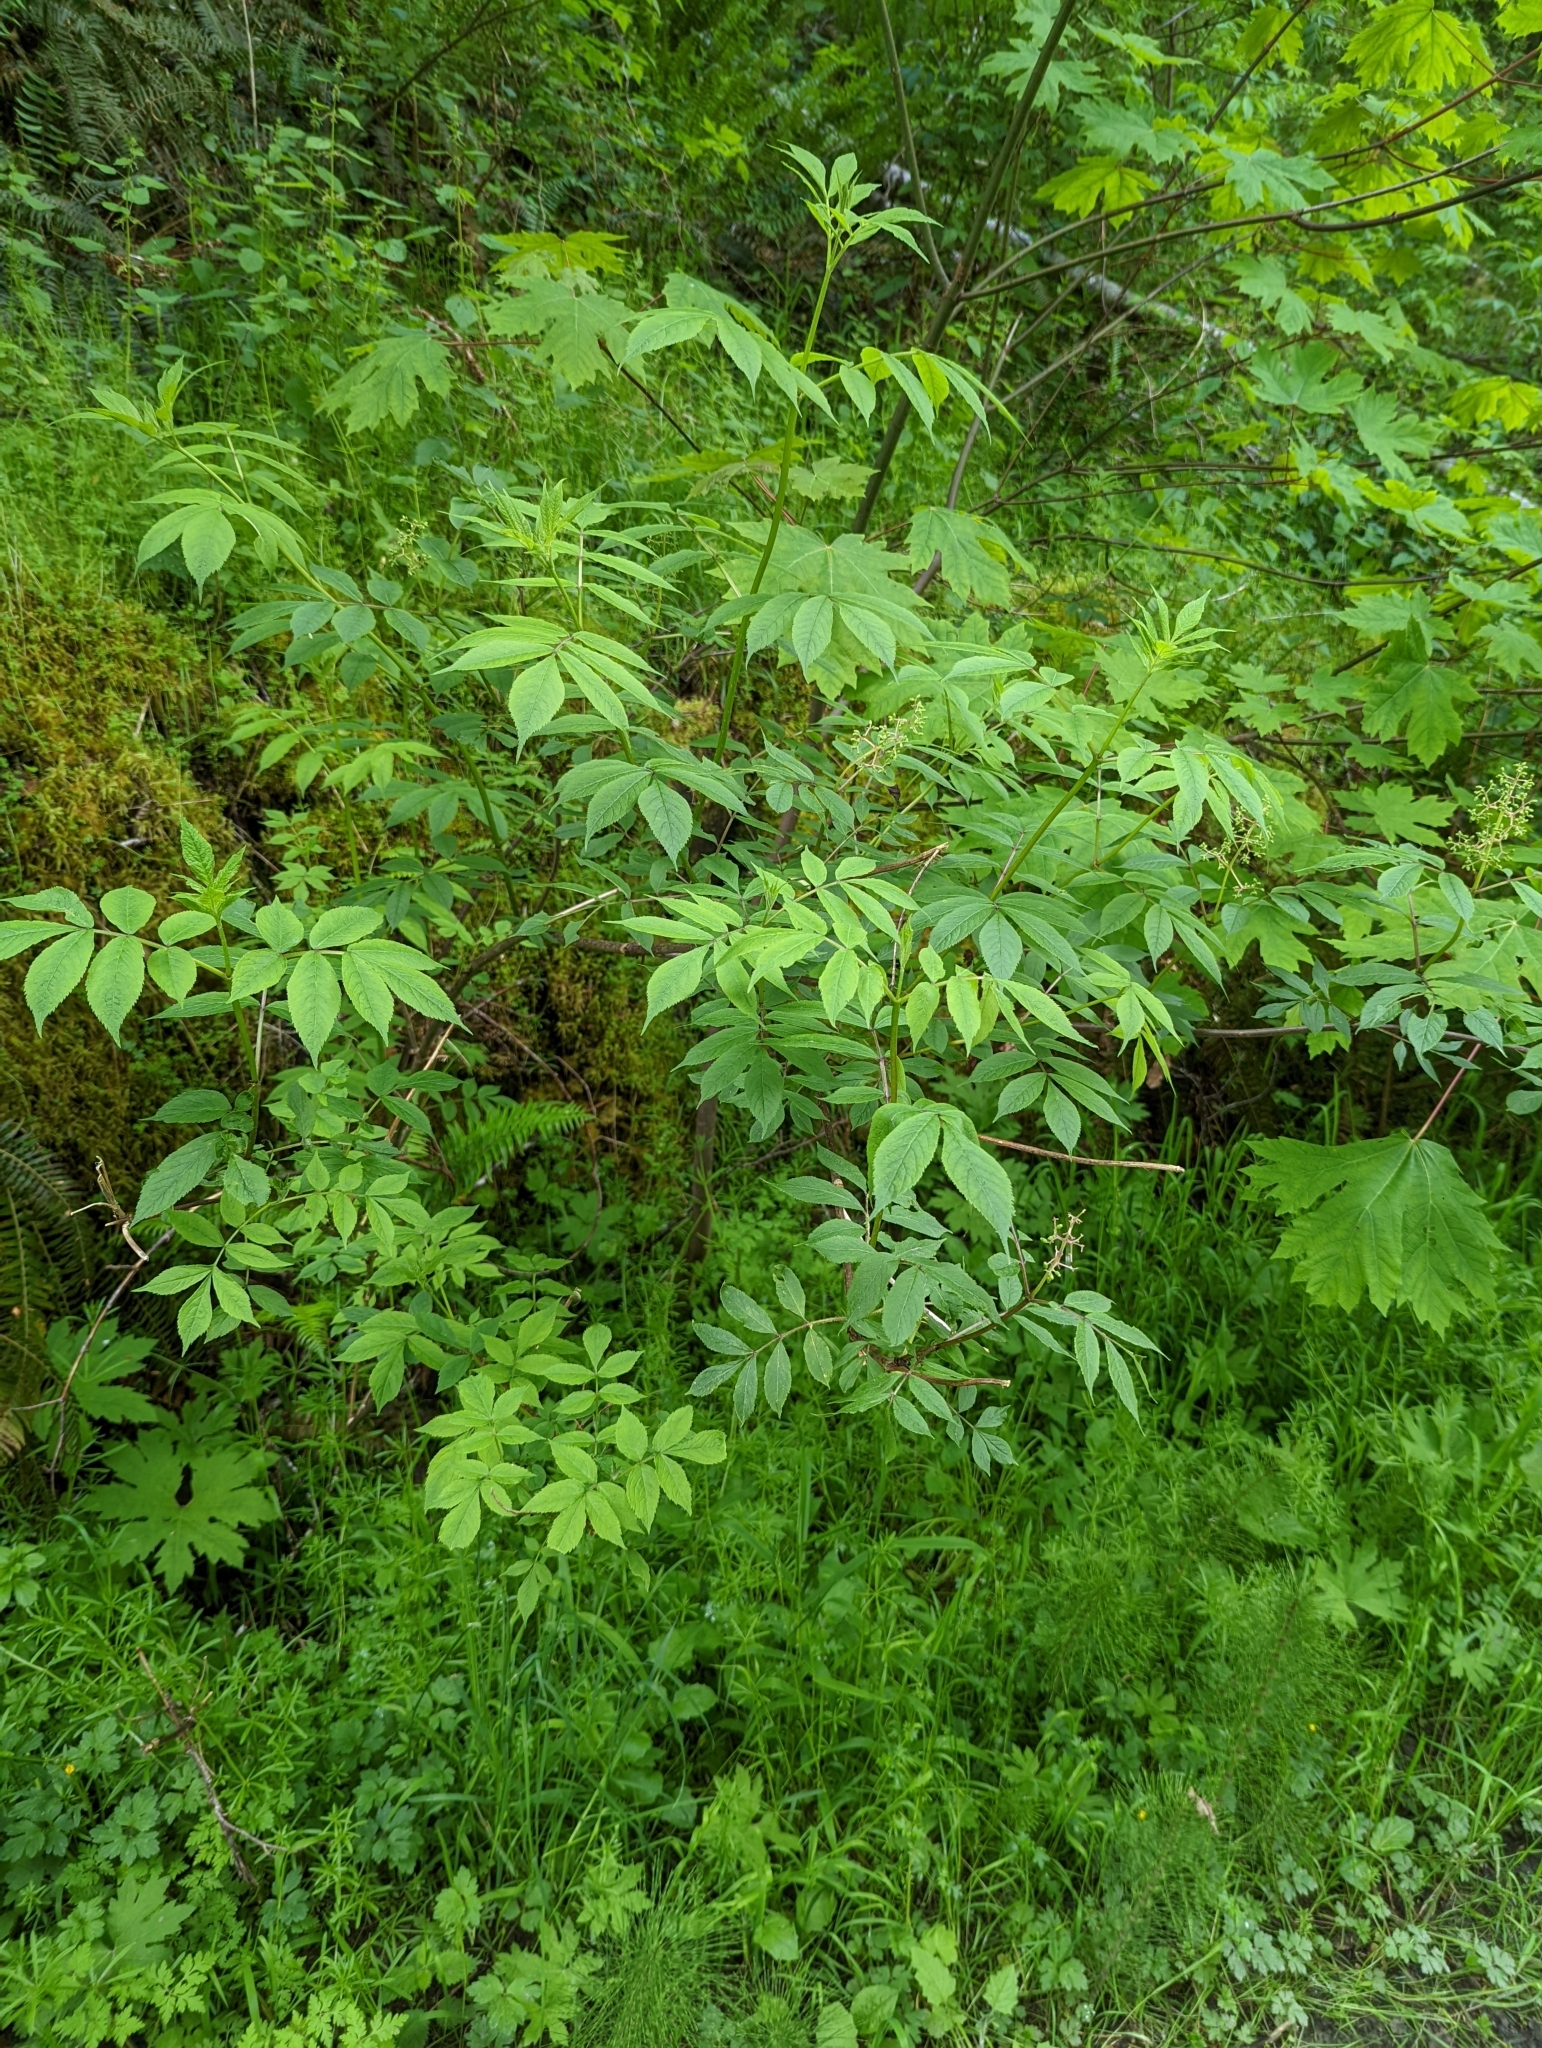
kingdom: Plantae
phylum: Tracheophyta
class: Magnoliopsida
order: Dipsacales
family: Viburnaceae
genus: Sambucus
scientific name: Sambucus racemosa
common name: Red-berried elder
